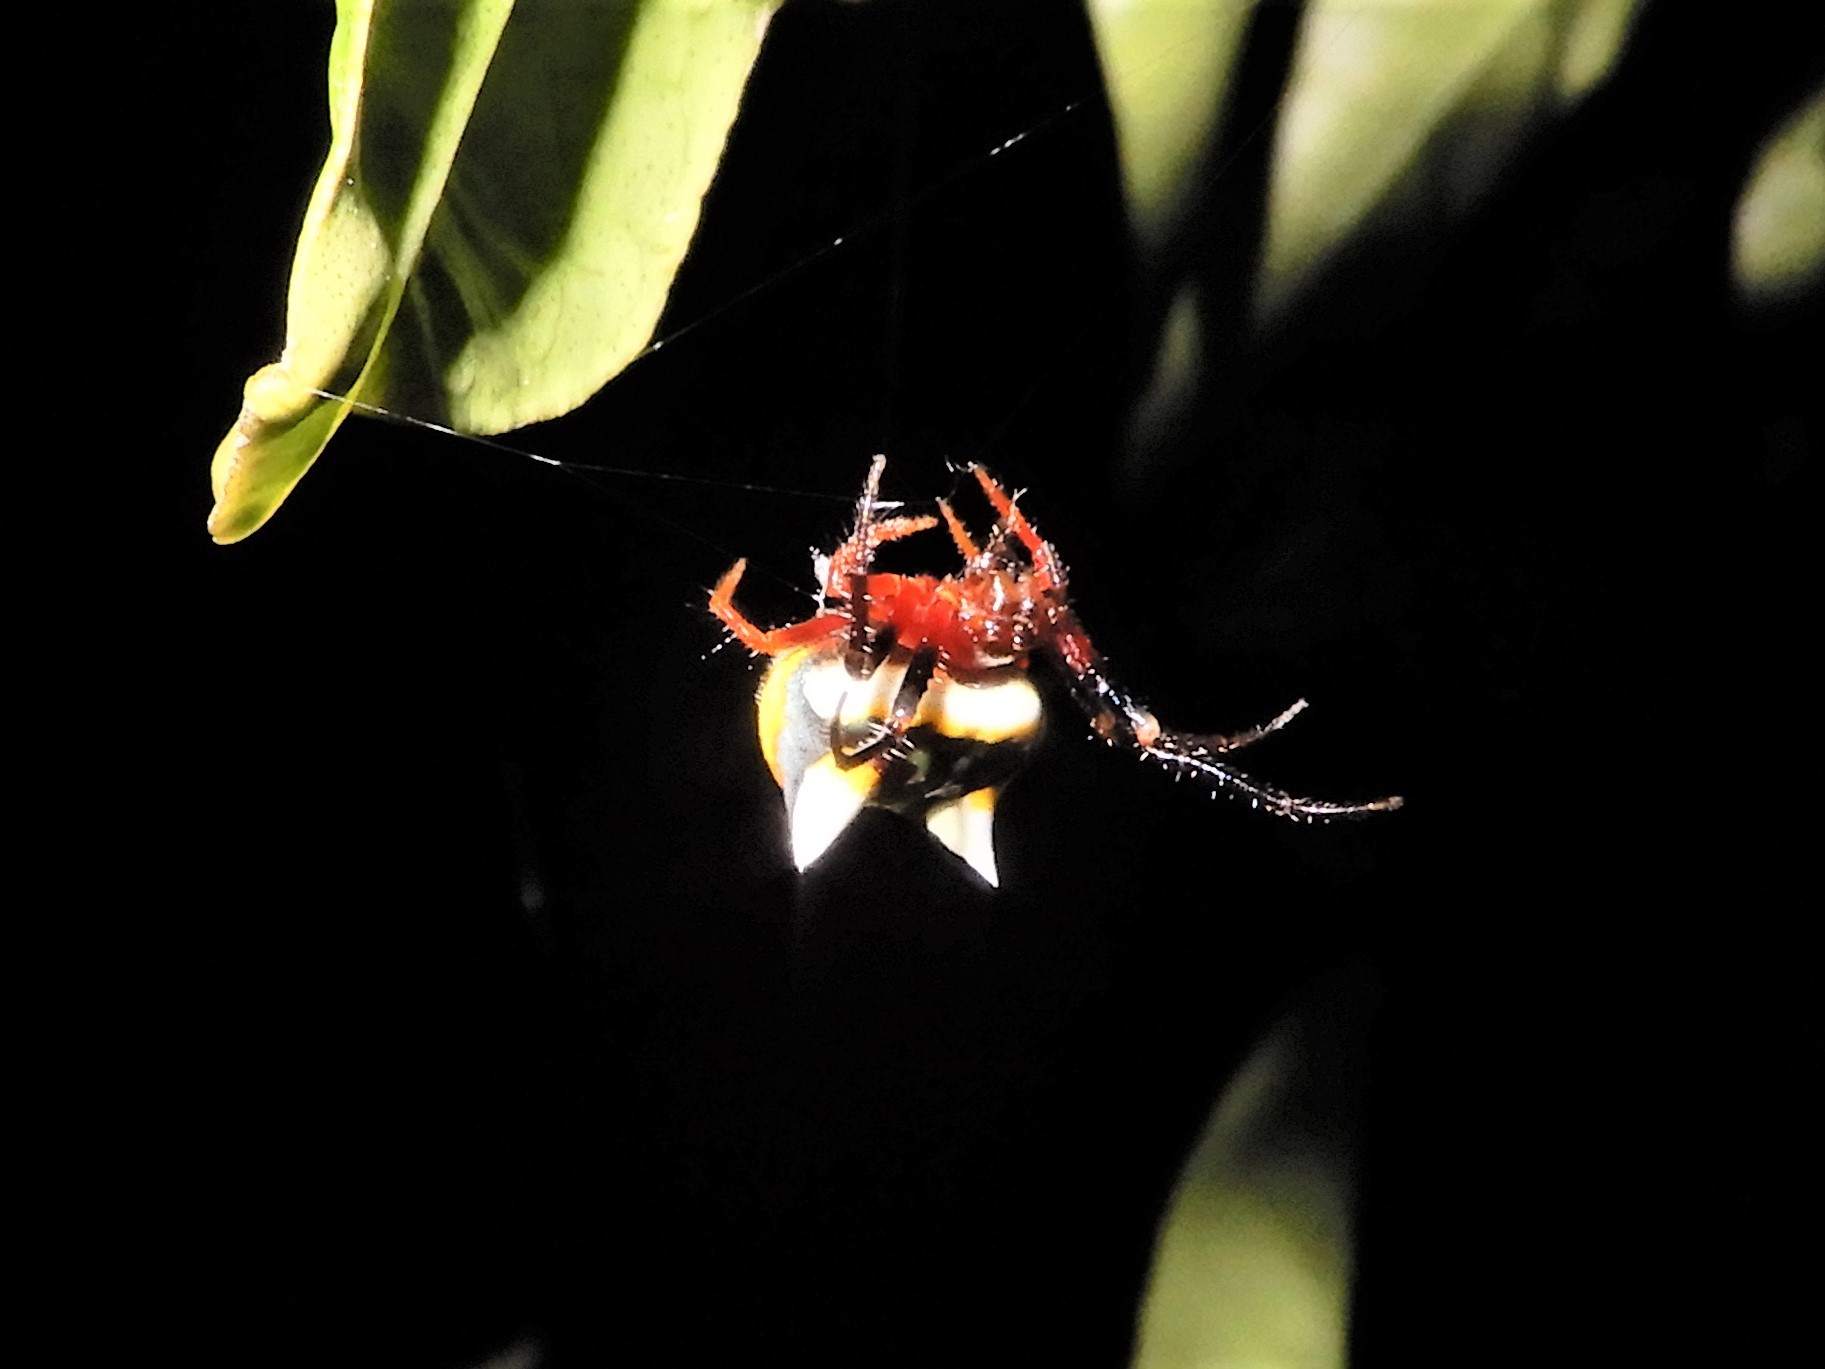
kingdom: Animalia
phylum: Arthropoda
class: Arachnida
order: Araneae
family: Araneidae
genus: Poecilopachys
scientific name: Poecilopachys australasia
